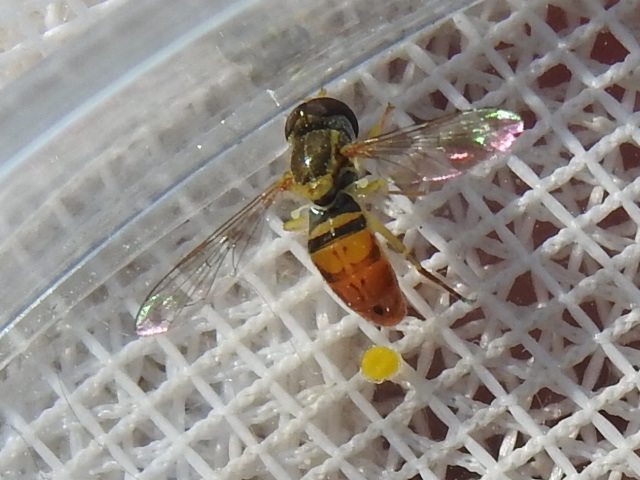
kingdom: Animalia
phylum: Arthropoda
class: Insecta
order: Diptera
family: Syrphidae
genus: Toxomerus
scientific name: Toxomerus marginatus
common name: Syrphid fly
